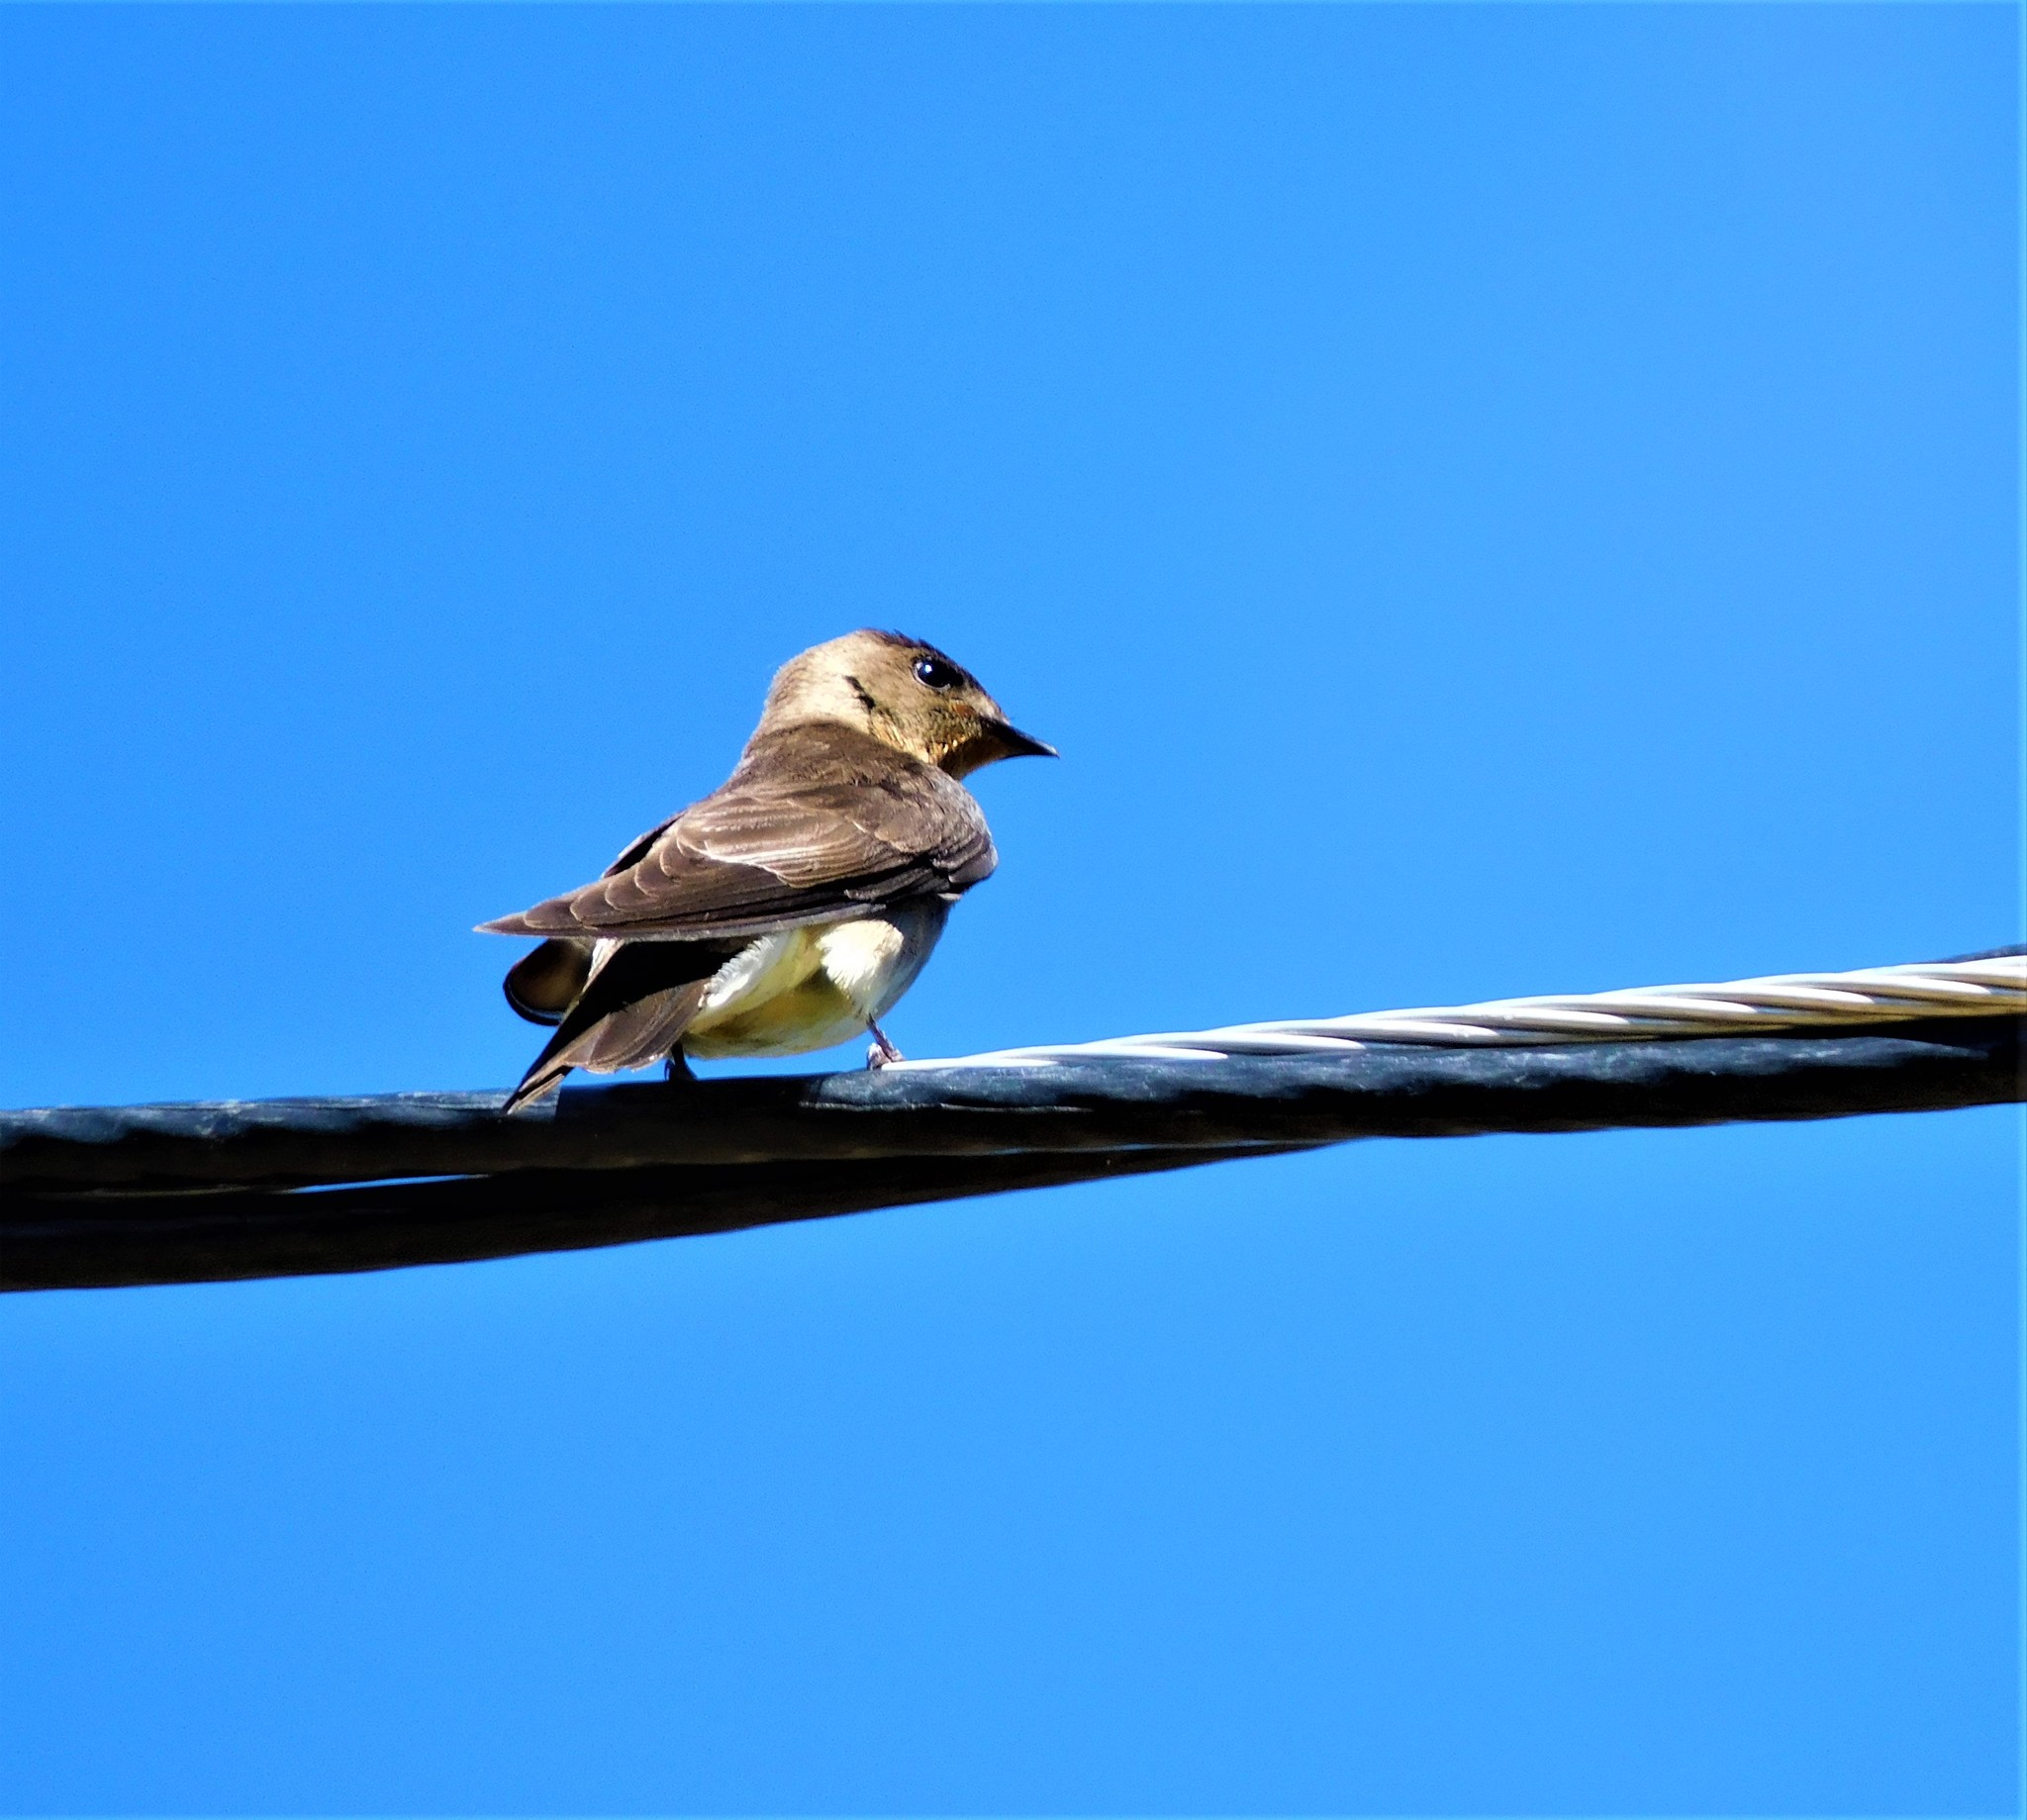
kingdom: Animalia
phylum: Chordata
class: Aves
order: Passeriformes
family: Hirundinidae
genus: Stelgidopteryx
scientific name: Stelgidopteryx ruficollis
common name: Southern rough-winged swallow
